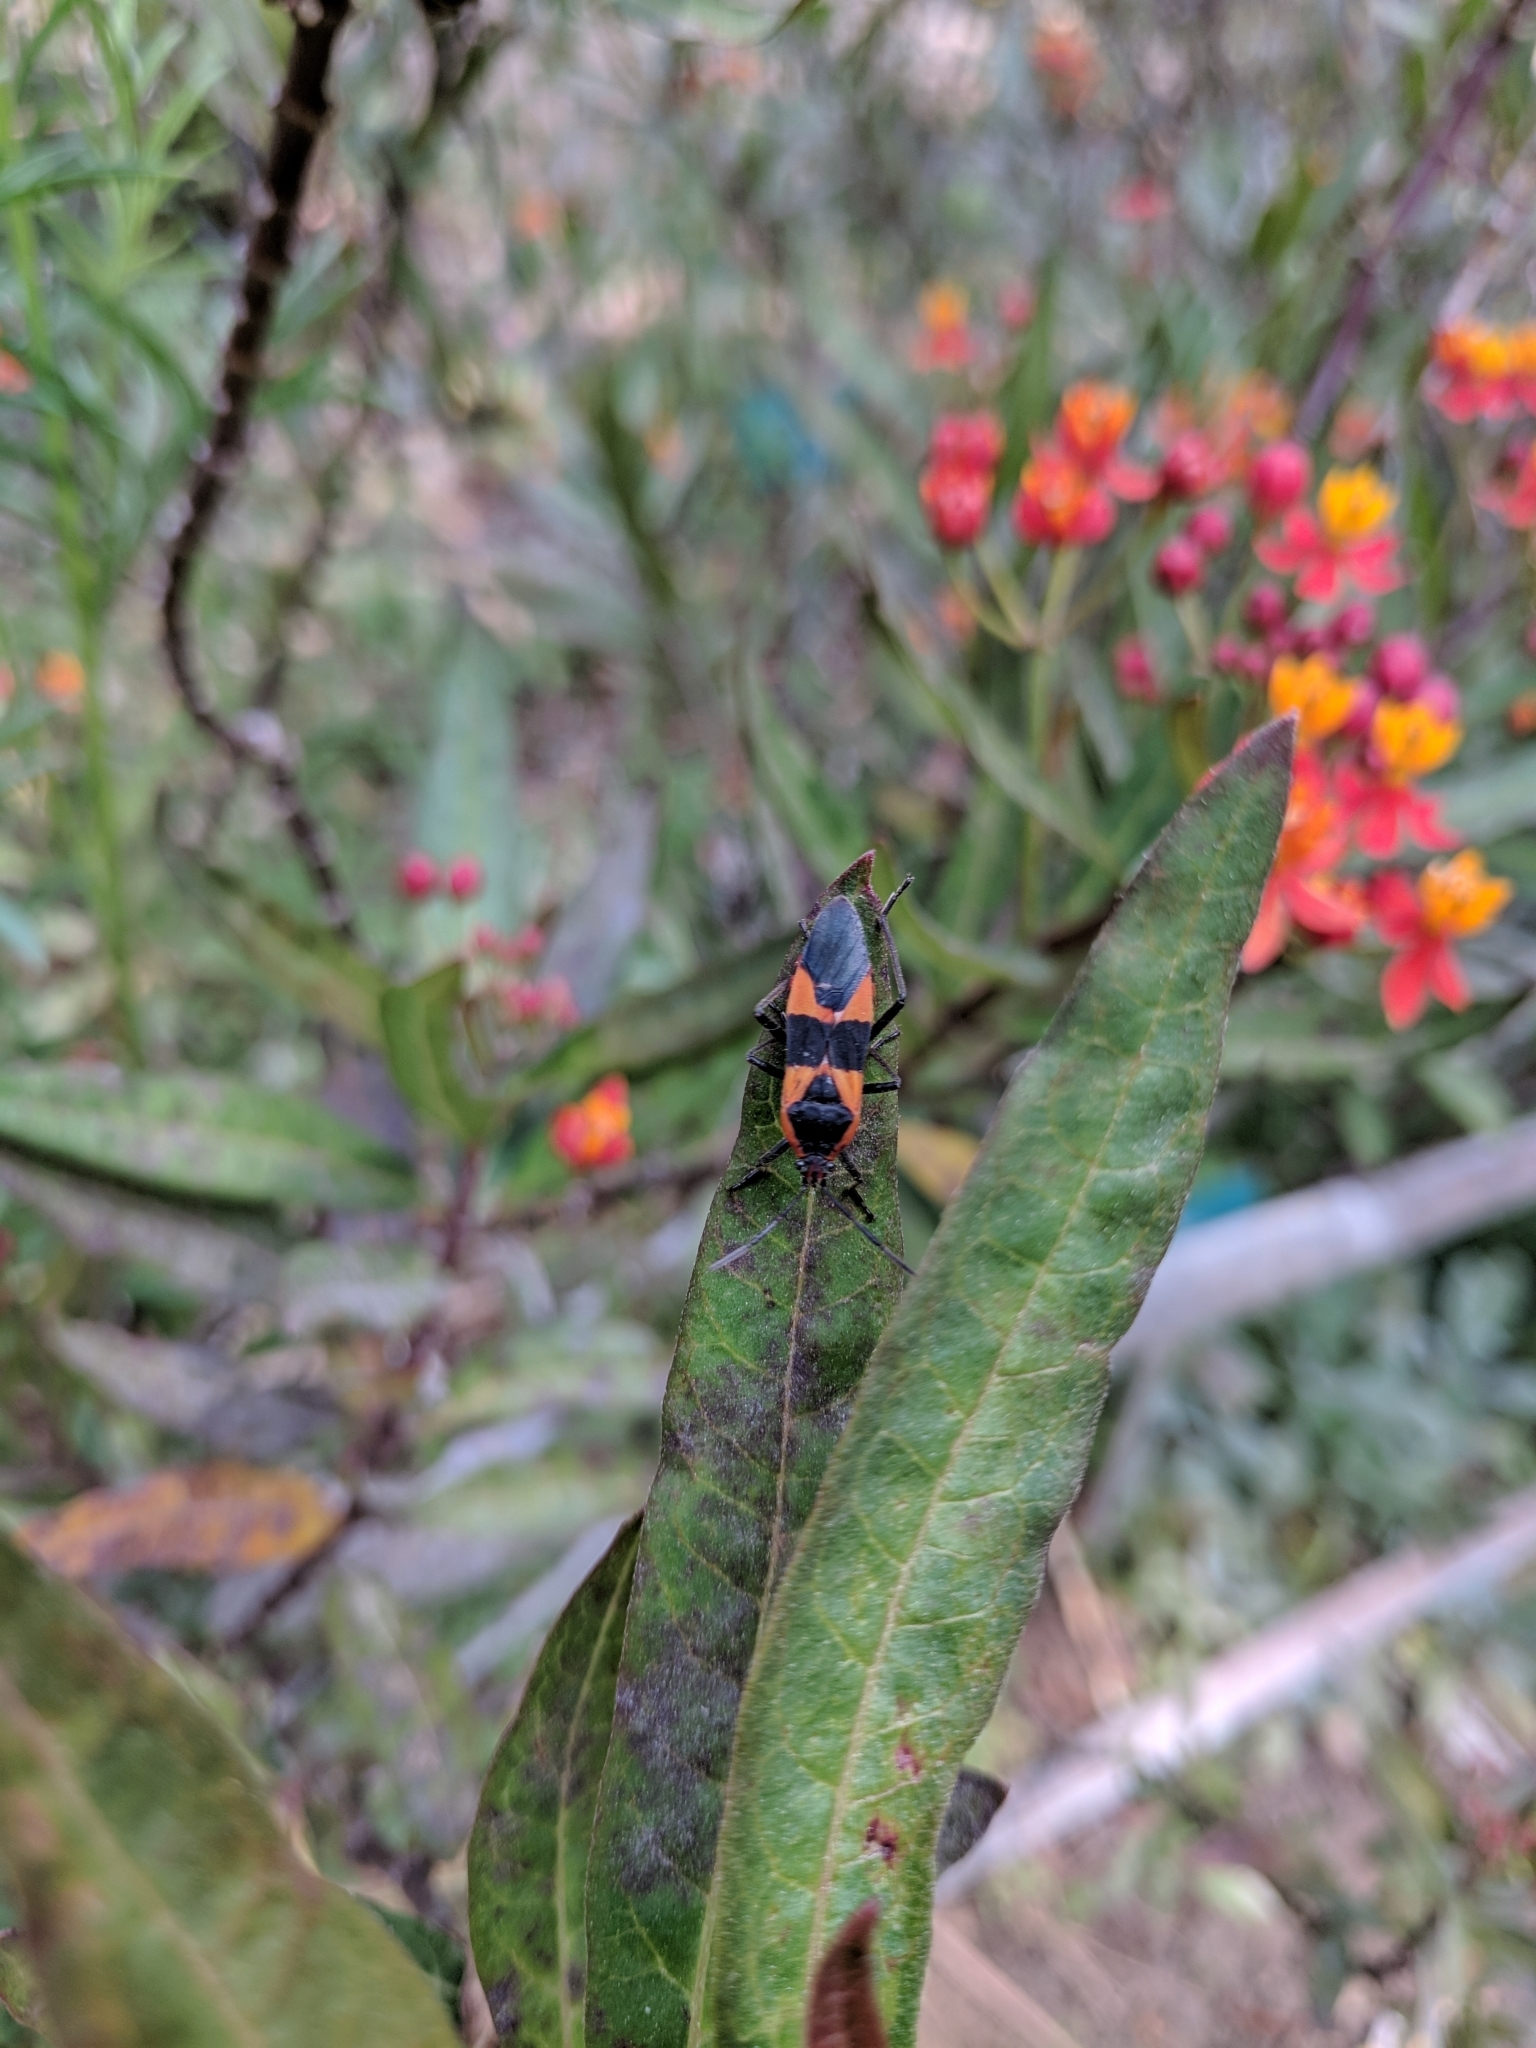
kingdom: Animalia
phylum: Arthropoda
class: Insecta
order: Hemiptera
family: Lygaeidae
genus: Oncopeltus
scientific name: Oncopeltus fasciatus
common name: Large milkweed bug
